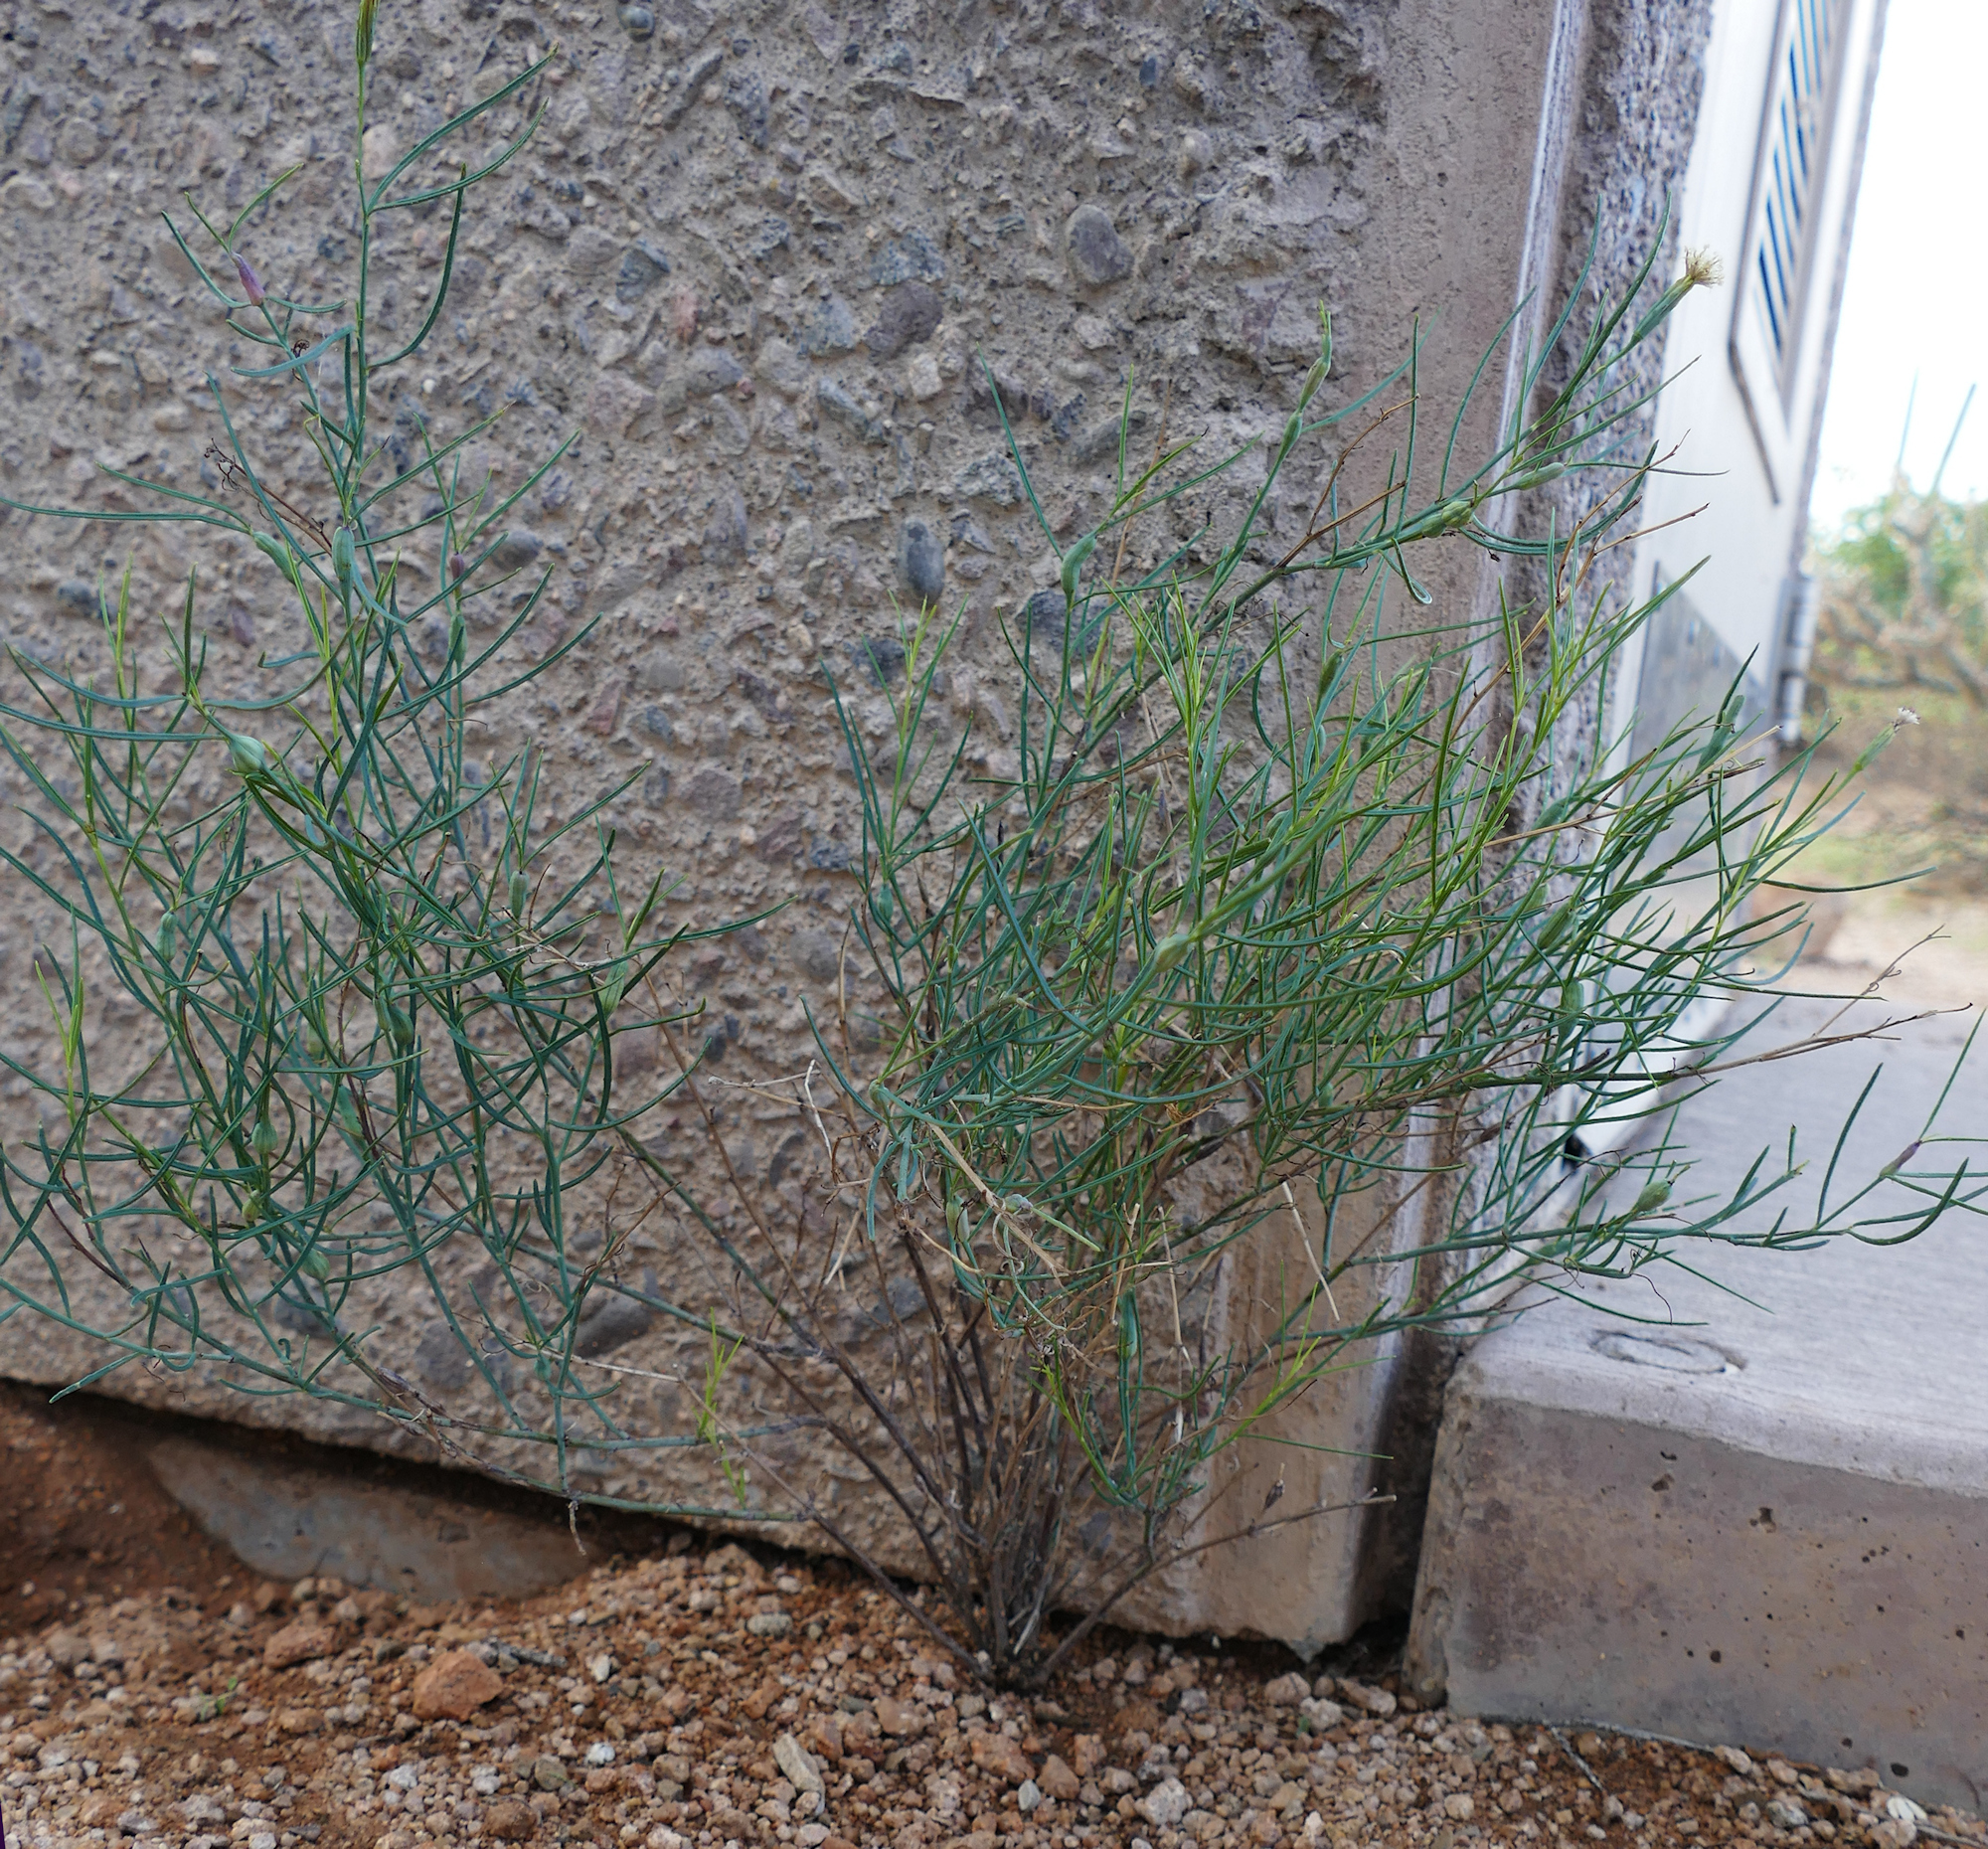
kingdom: Plantae
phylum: Tracheophyta
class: Magnoliopsida
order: Asterales
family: Asteraceae
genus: Porophyllum
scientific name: Porophyllum gracile
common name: Odora
